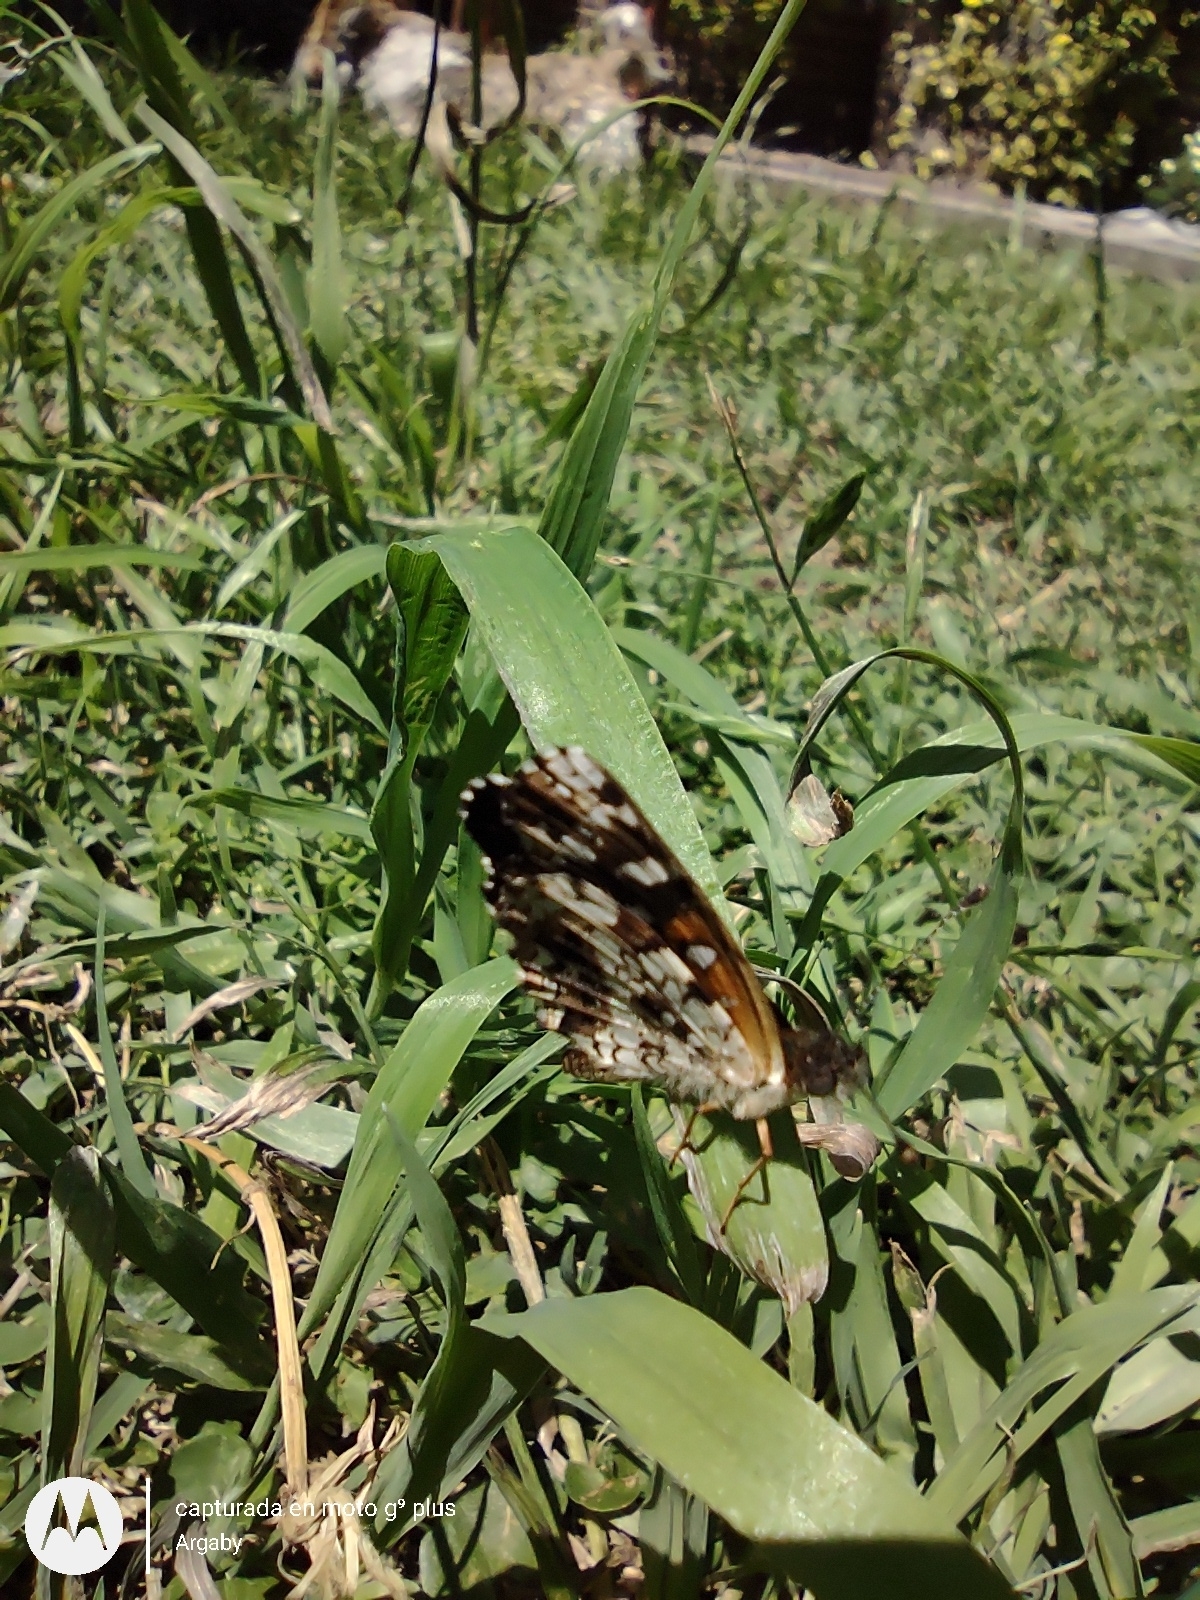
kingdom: Animalia
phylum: Arthropoda
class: Insecta
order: Lepidoptera
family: Nymphalidae
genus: Ortilia
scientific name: Ortilia ithra
